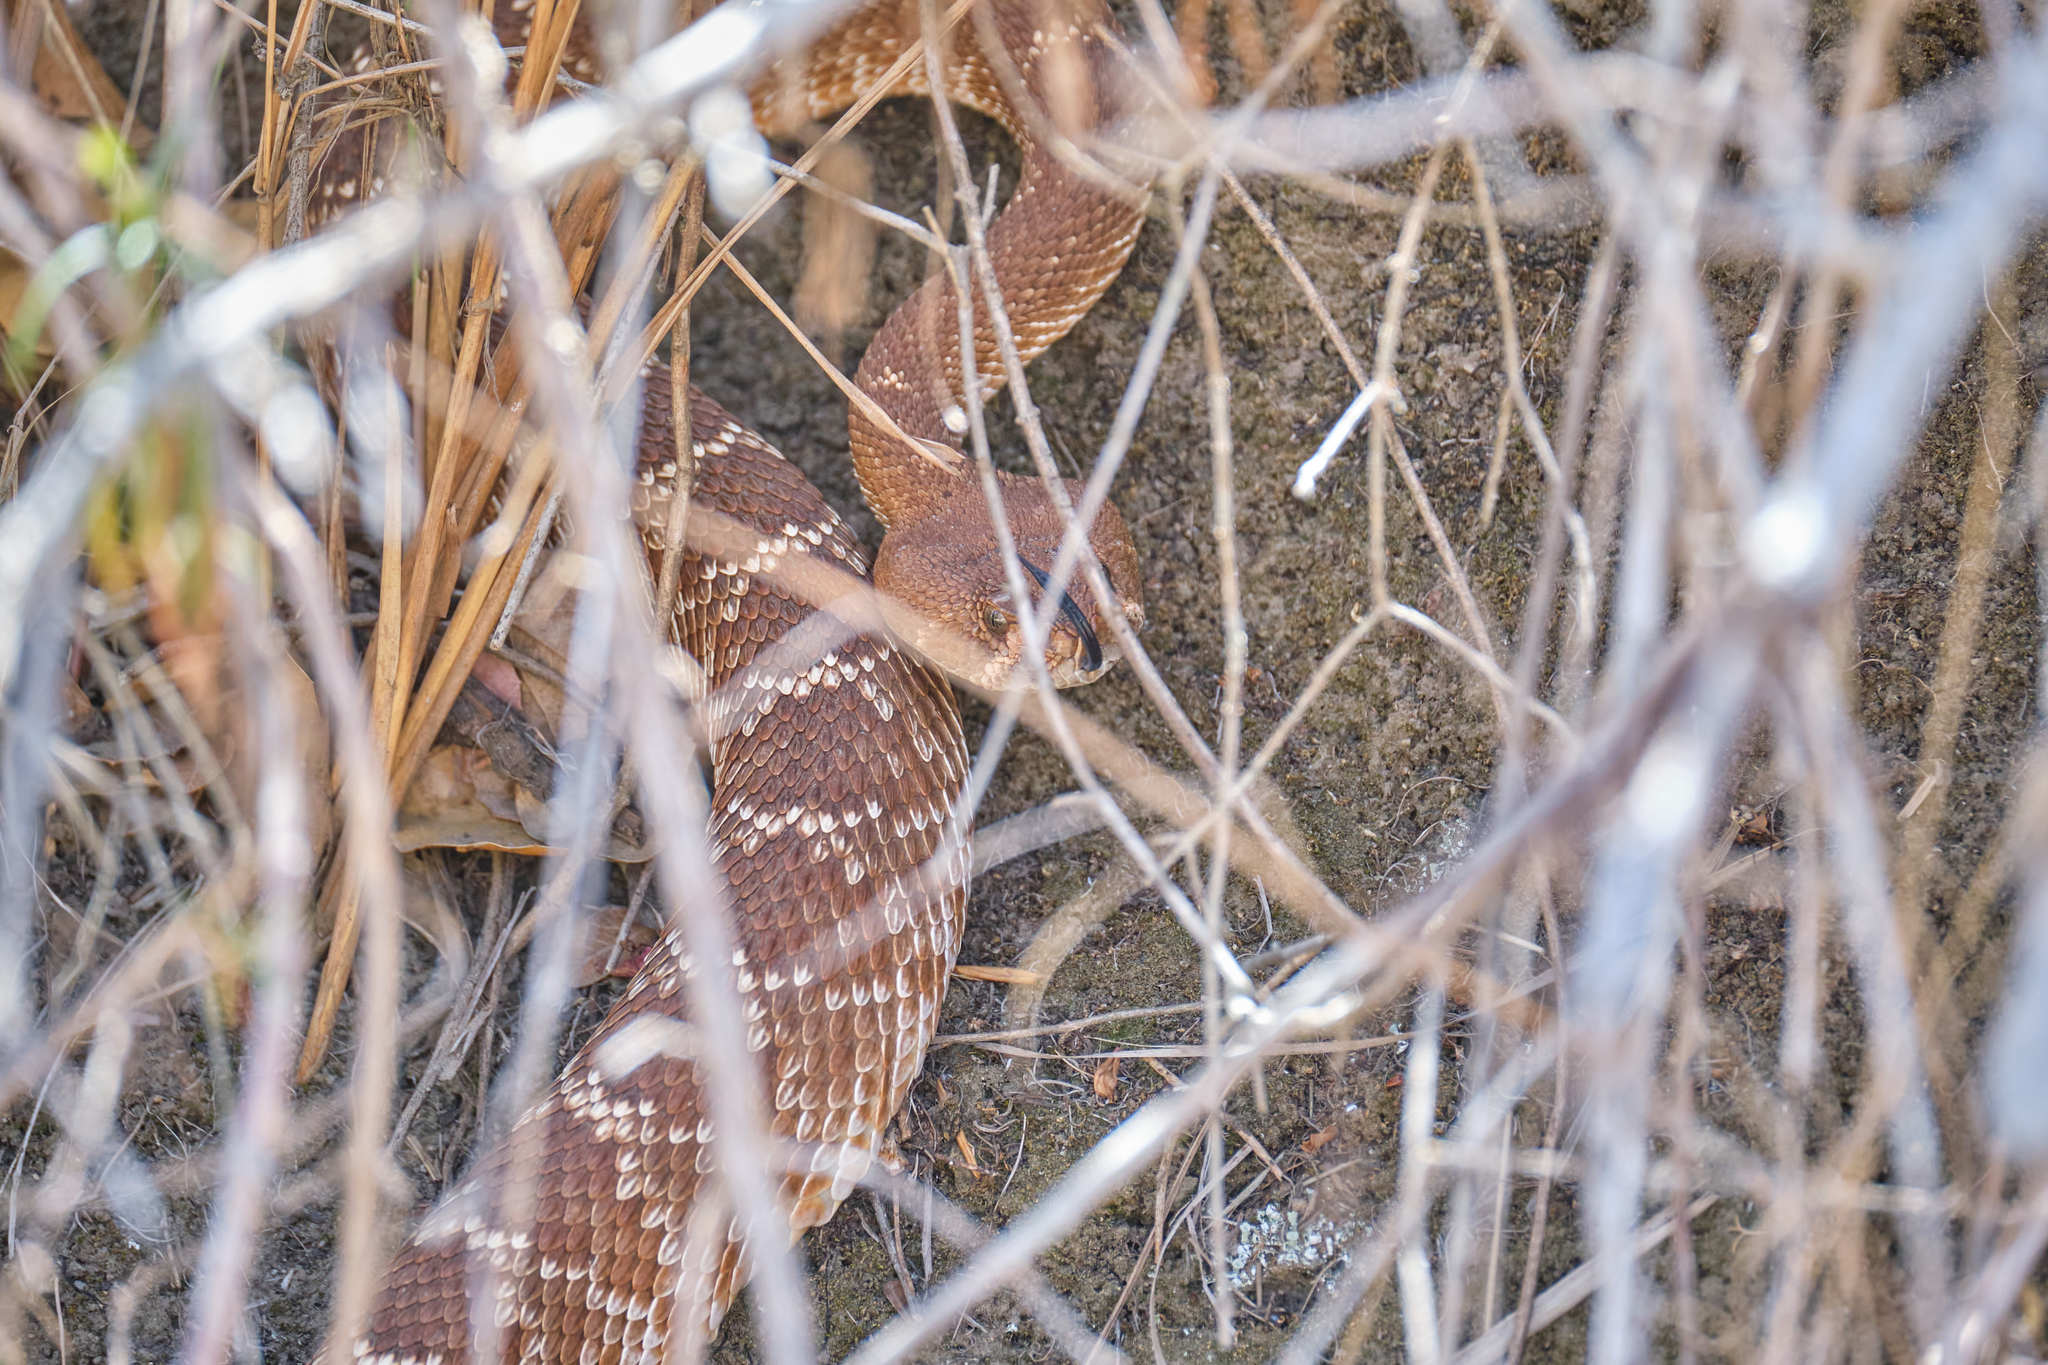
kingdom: Animalia
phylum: Chordata
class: Squamata
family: Viperidae
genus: Crotalus
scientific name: Crotalus ruber
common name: Red diamond rattlesnake
